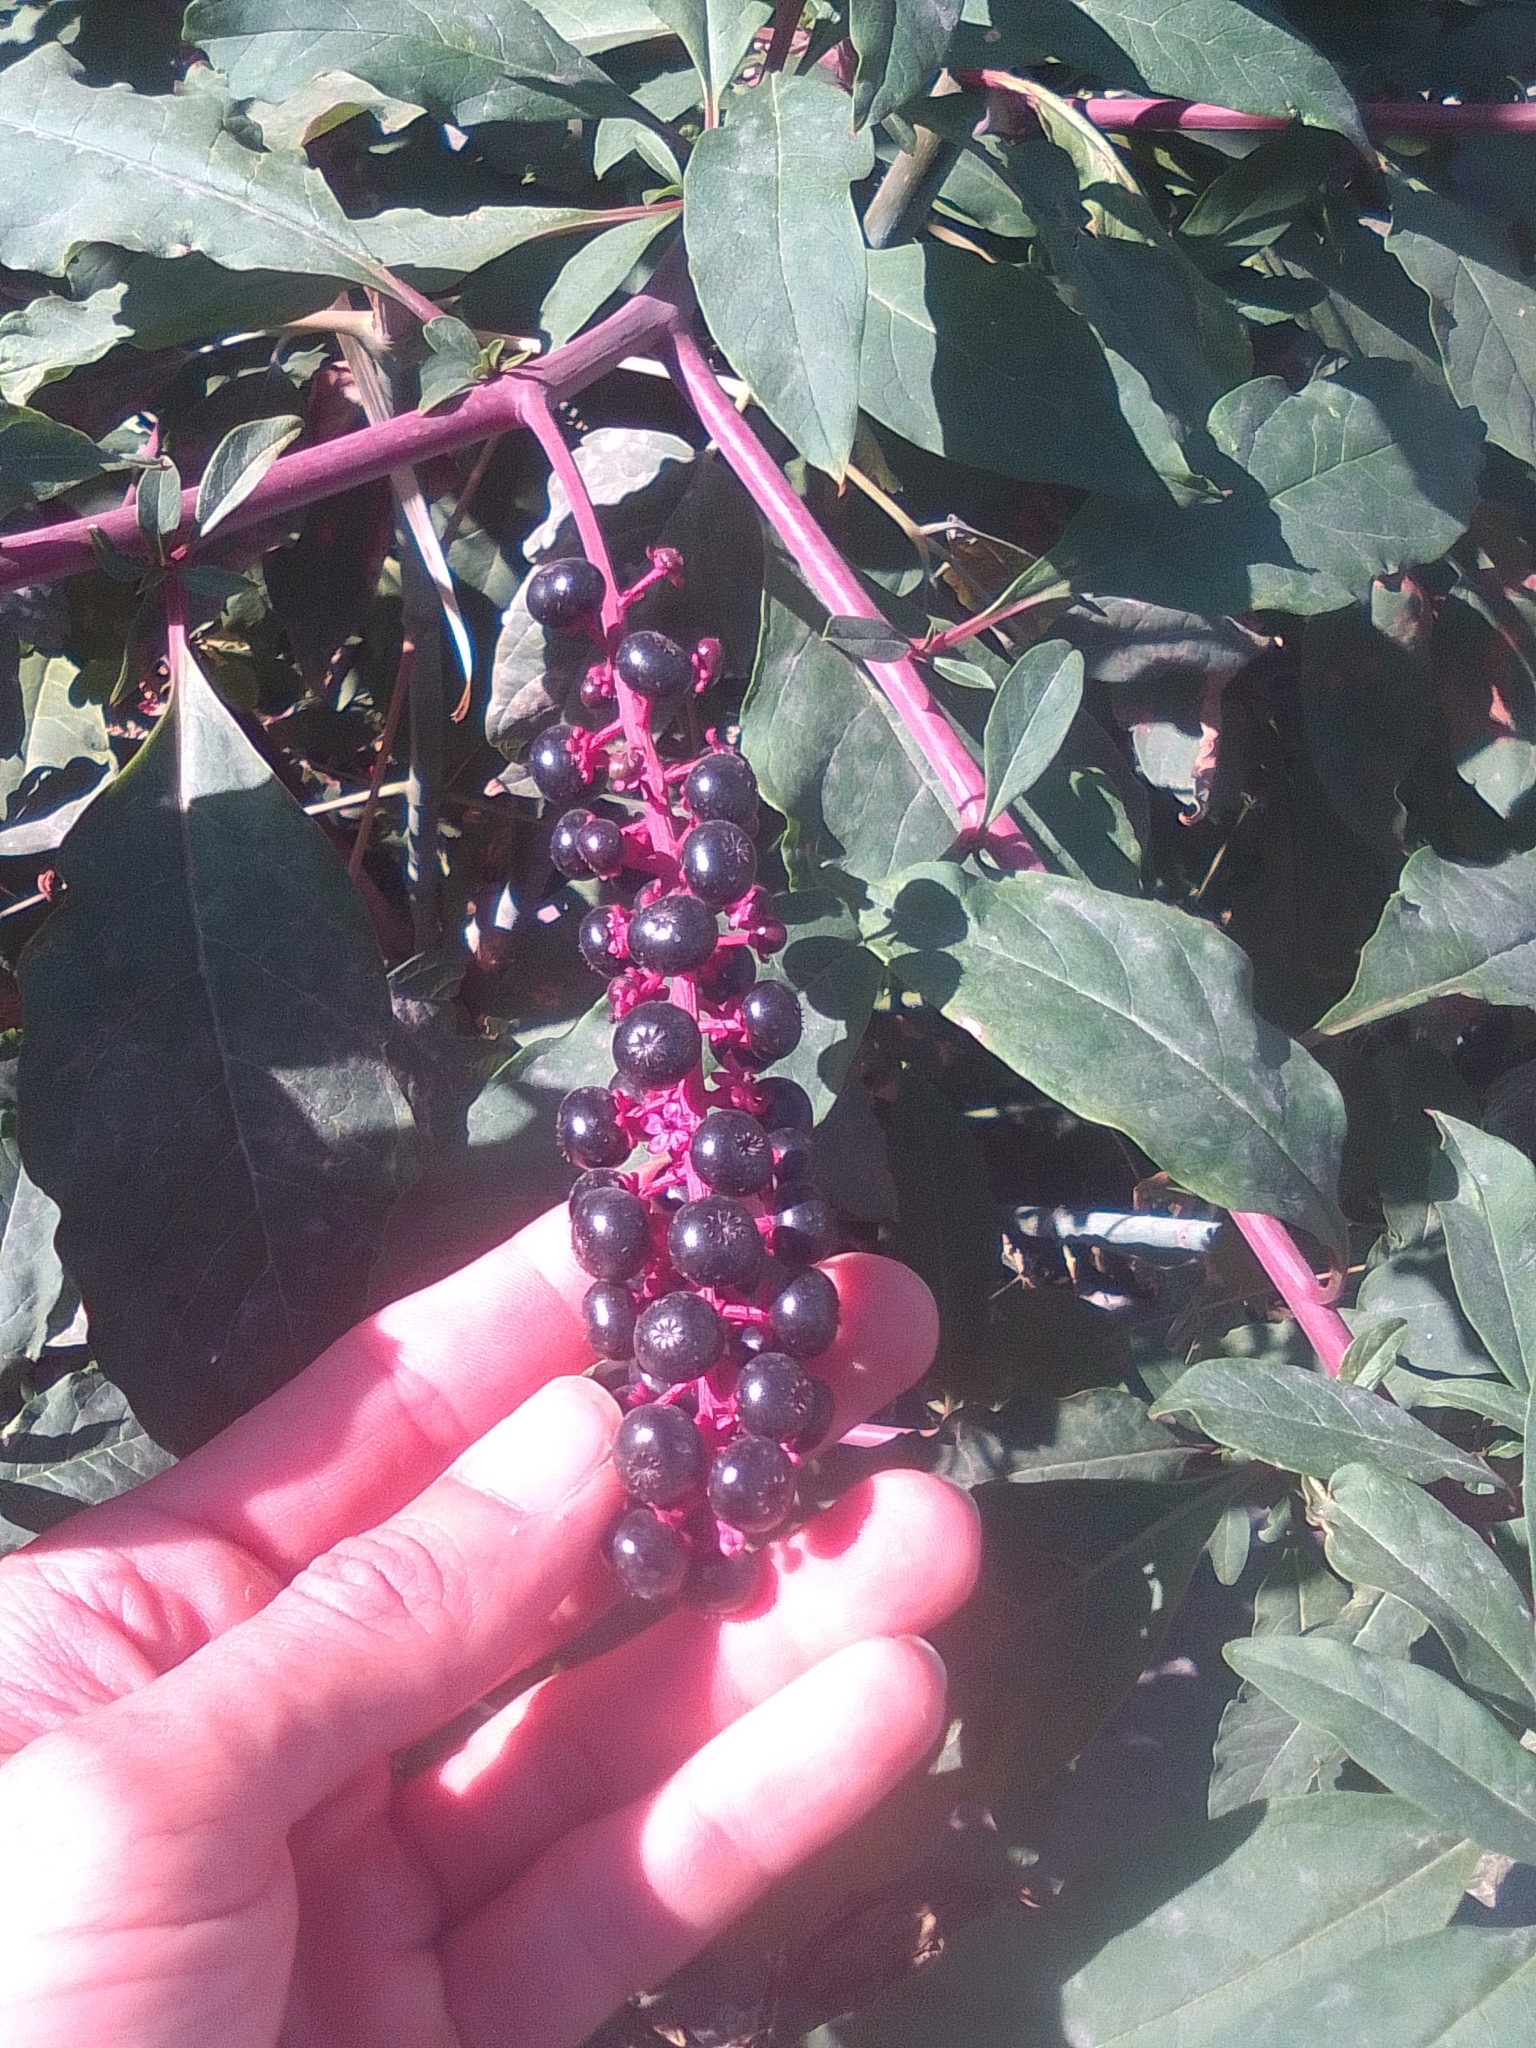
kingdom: Plantae
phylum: Tracheophyta
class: Magnoliopsida
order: Caryophyllales
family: Phytolaccaceae
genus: Phytolacca
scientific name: Phytolacca americana
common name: American pokeweed
